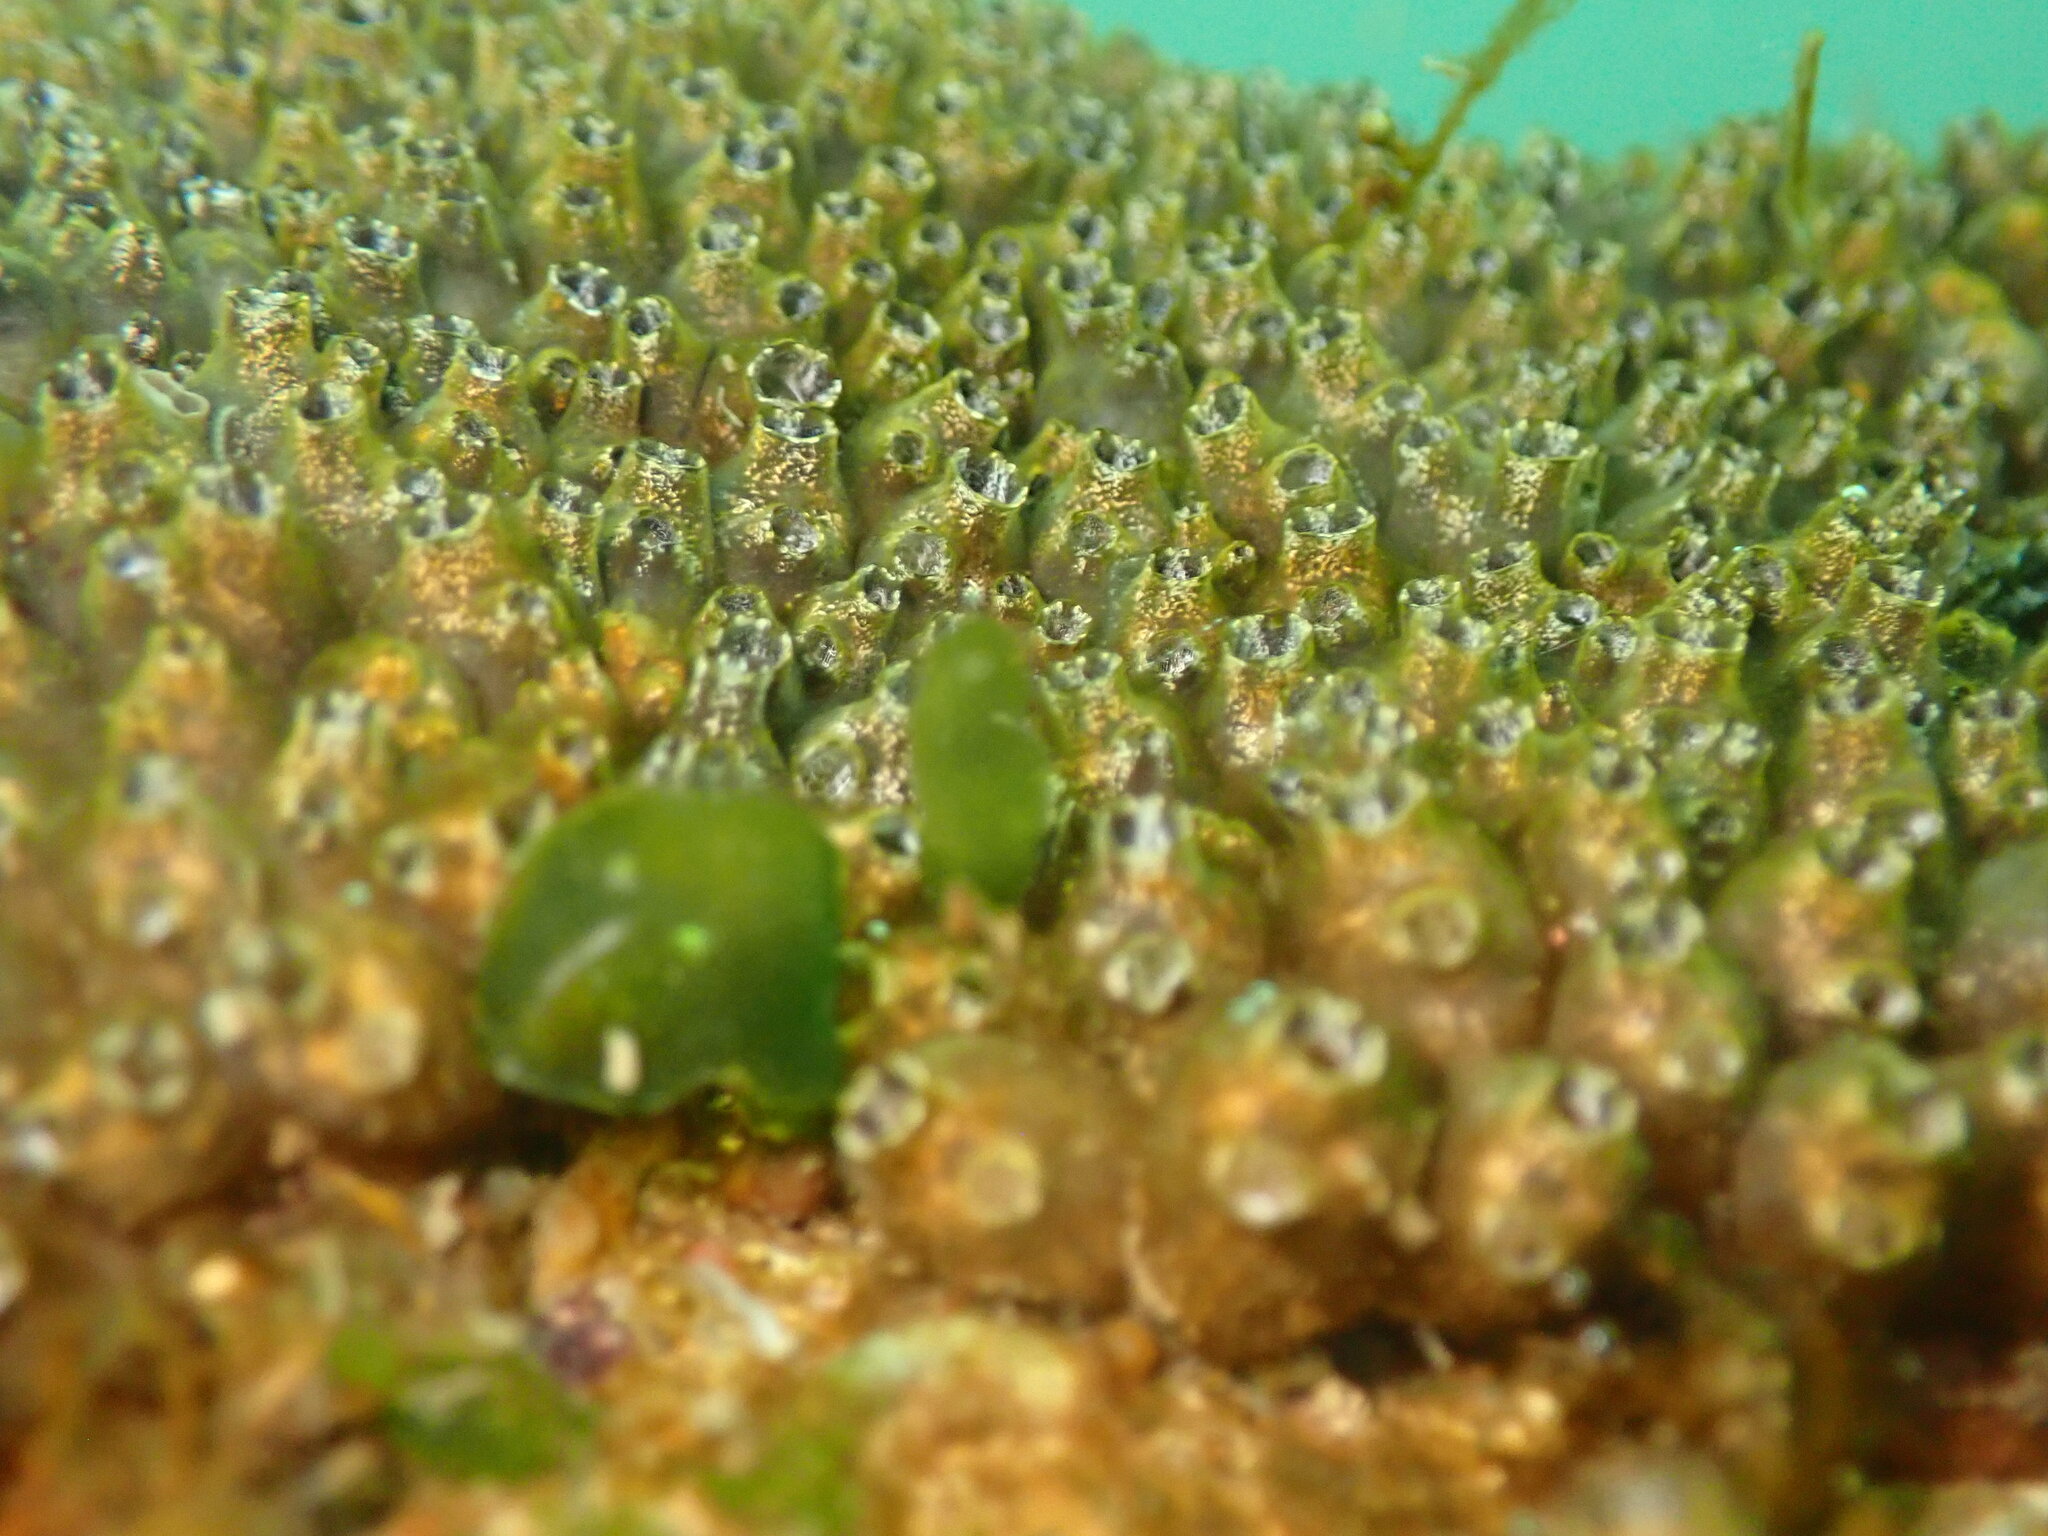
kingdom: Animalia
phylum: Chordata
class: Ascidiacea
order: Stolidobranchia
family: Styelidae
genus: Polyandrocarpa
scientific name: Polyandrocarpa zorritensis
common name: Ascidian
